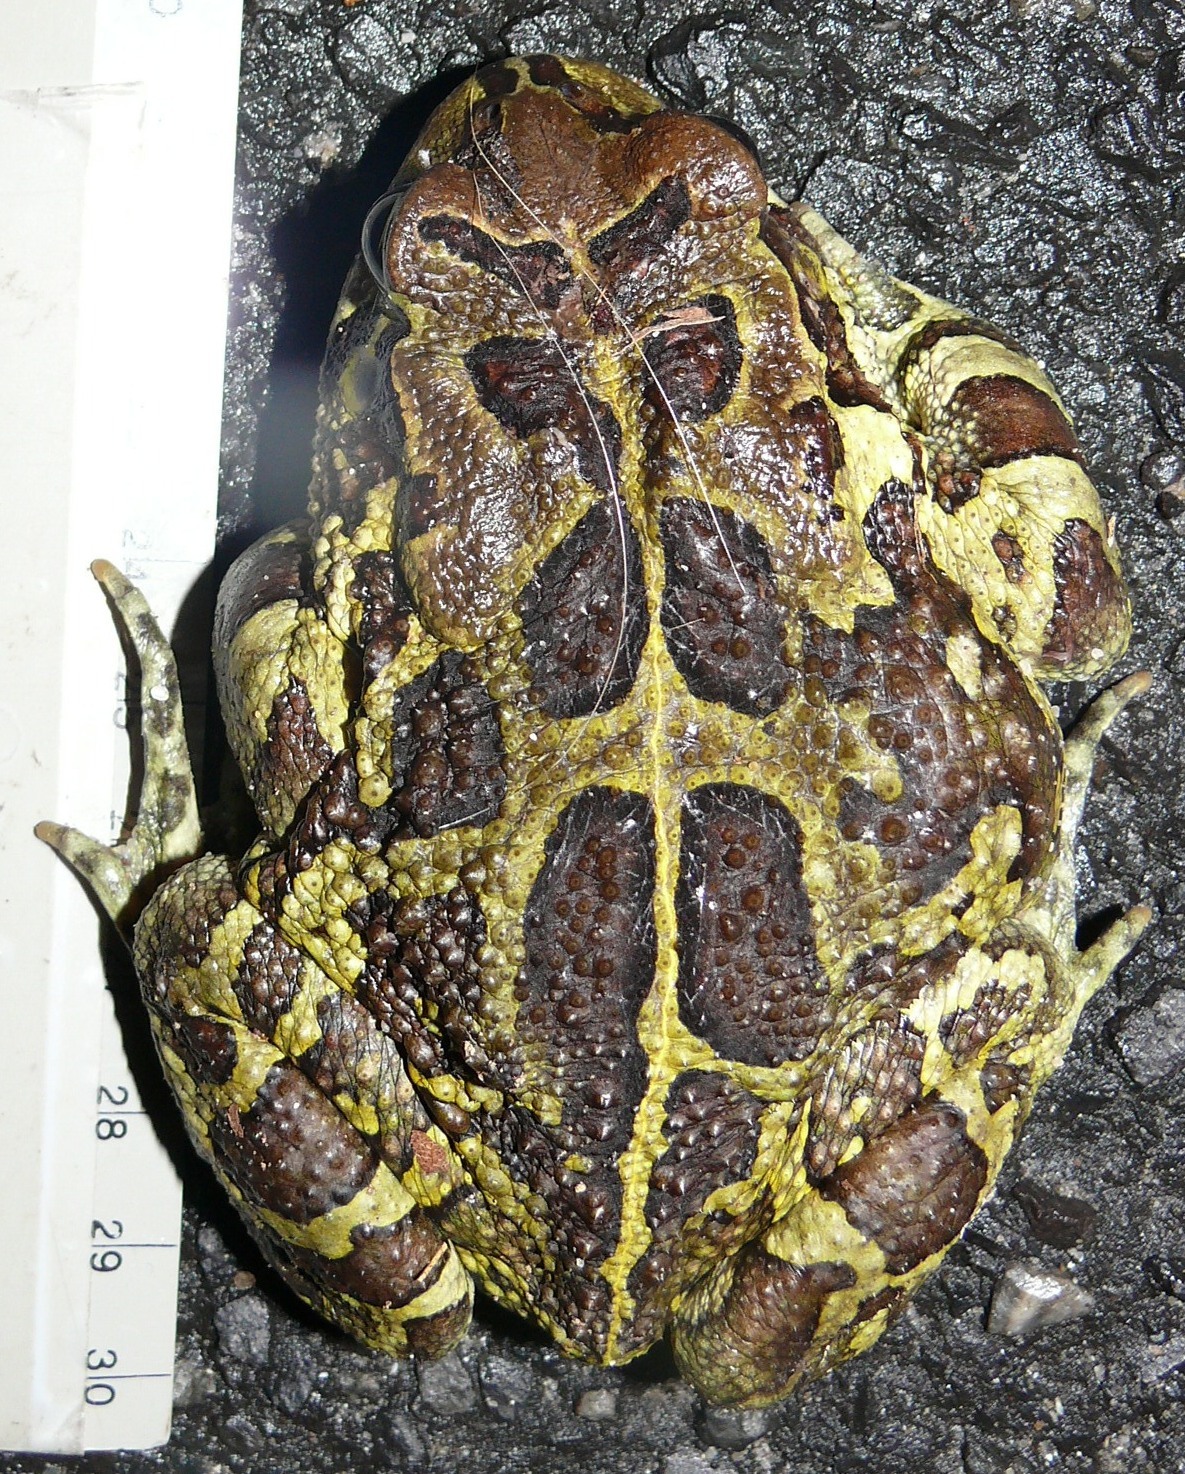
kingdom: Animalia
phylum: Chordata
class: Amphibia
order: Anura
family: Bufonidae
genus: Sclerophrys
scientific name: Sclerophrys pantherina
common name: Panther toad
